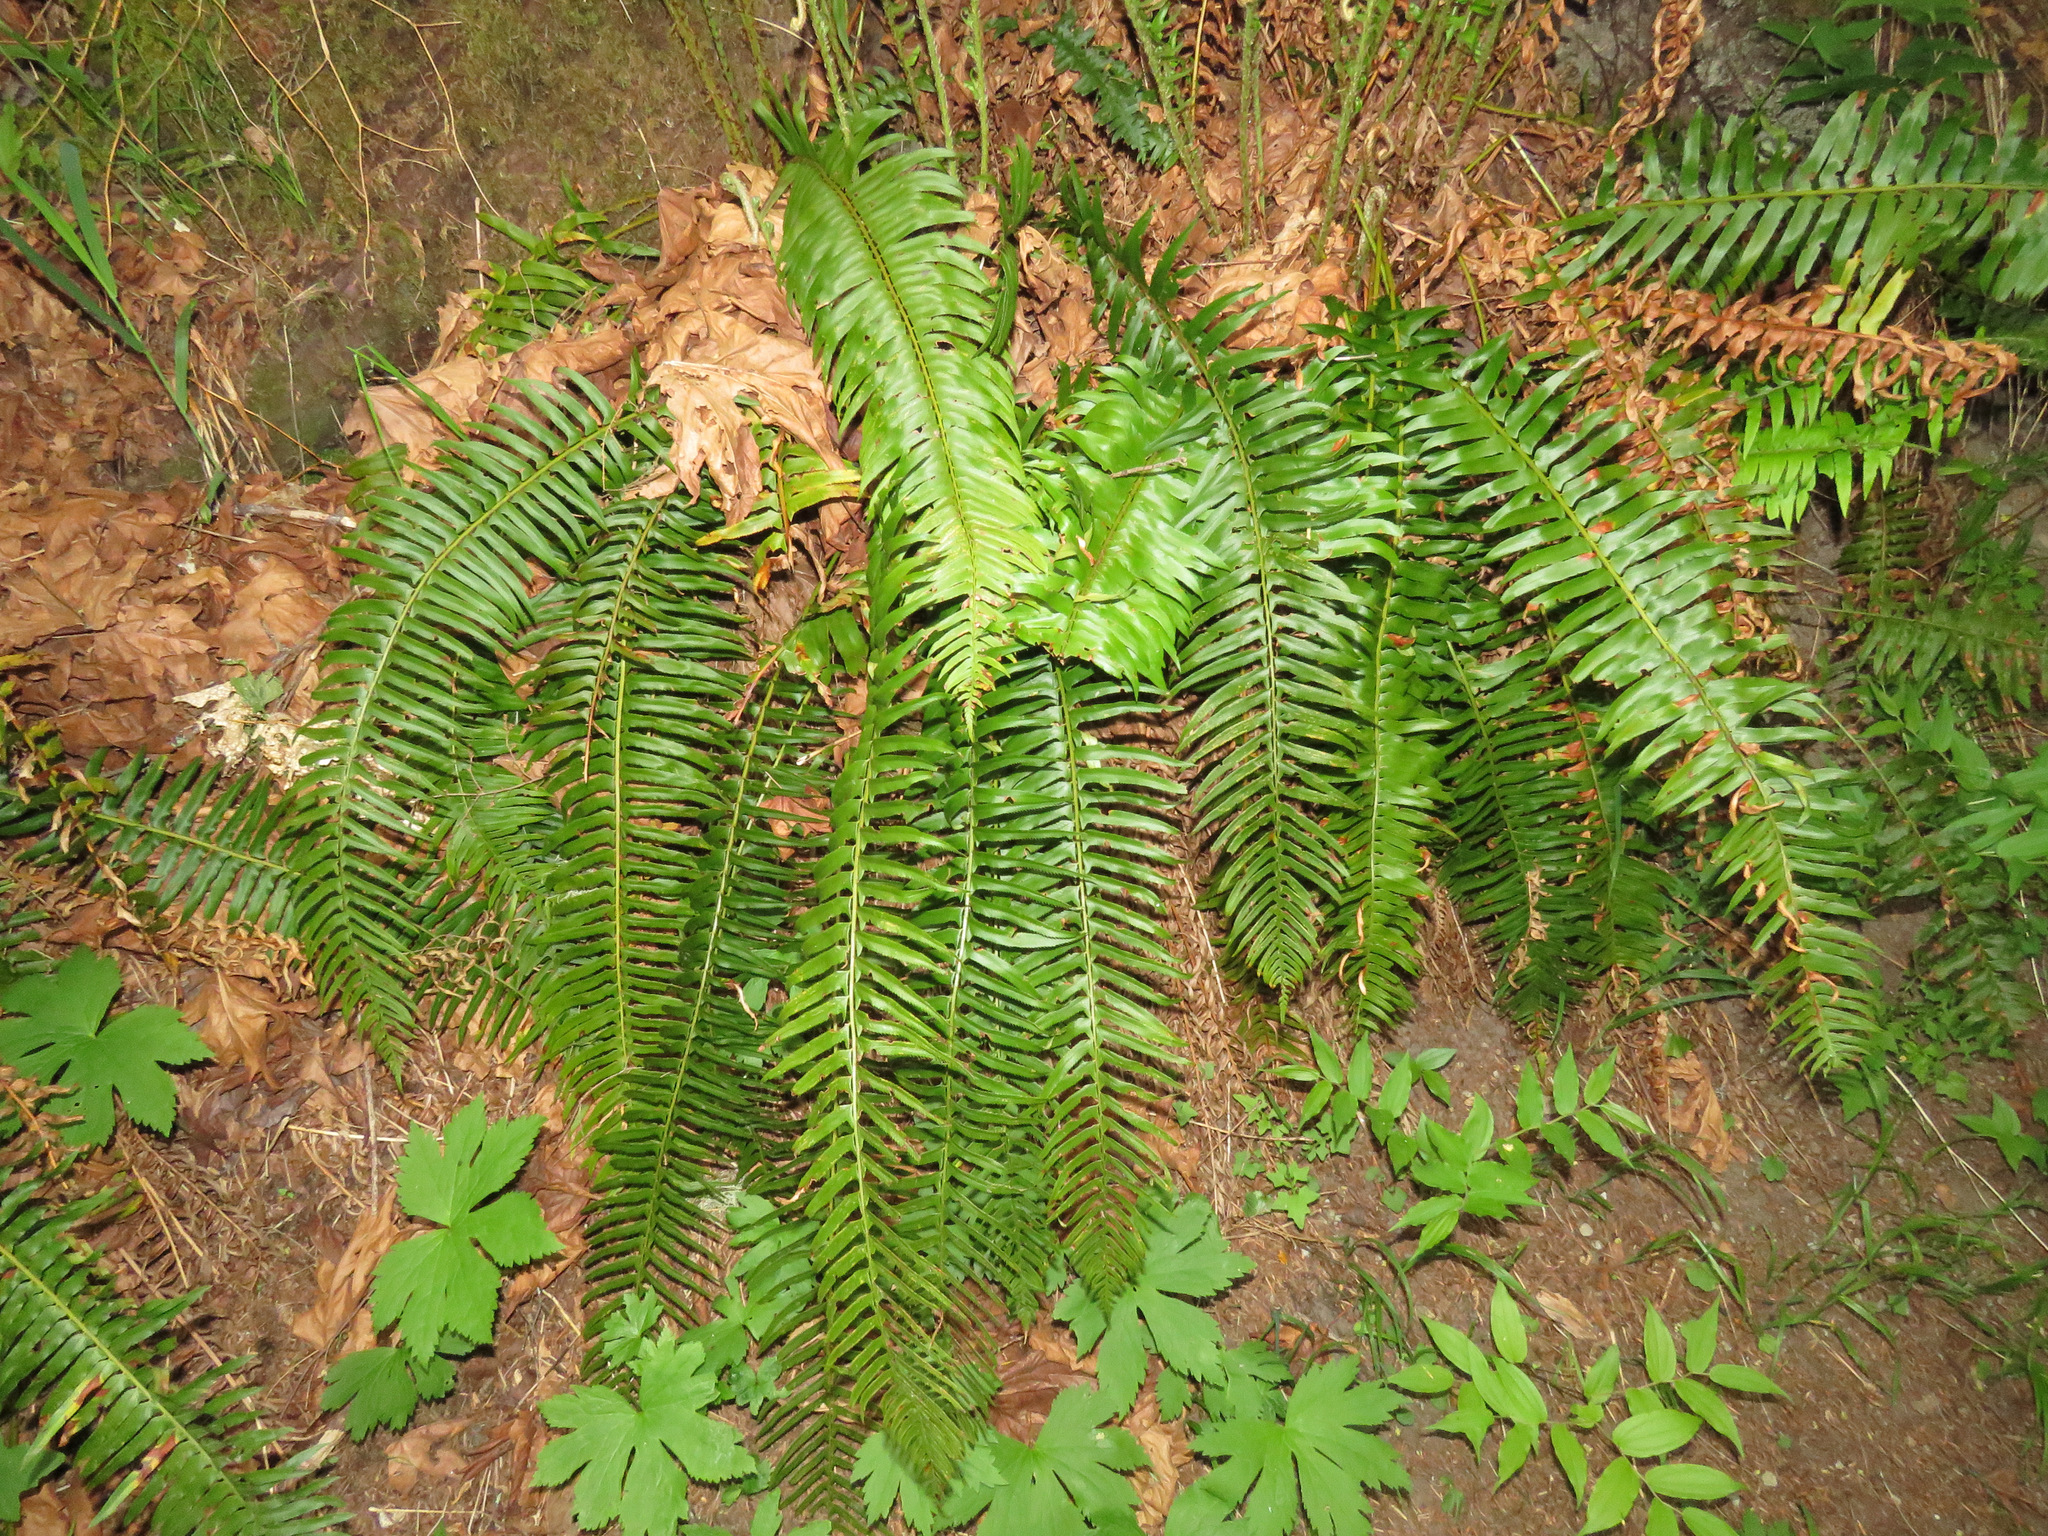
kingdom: Plantae
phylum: Tracheophyta
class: Polypodiopsida
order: Polypodiales
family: Dryopteridaceae
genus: Polystichum
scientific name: Polystichum munitum
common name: Western sword-fern
